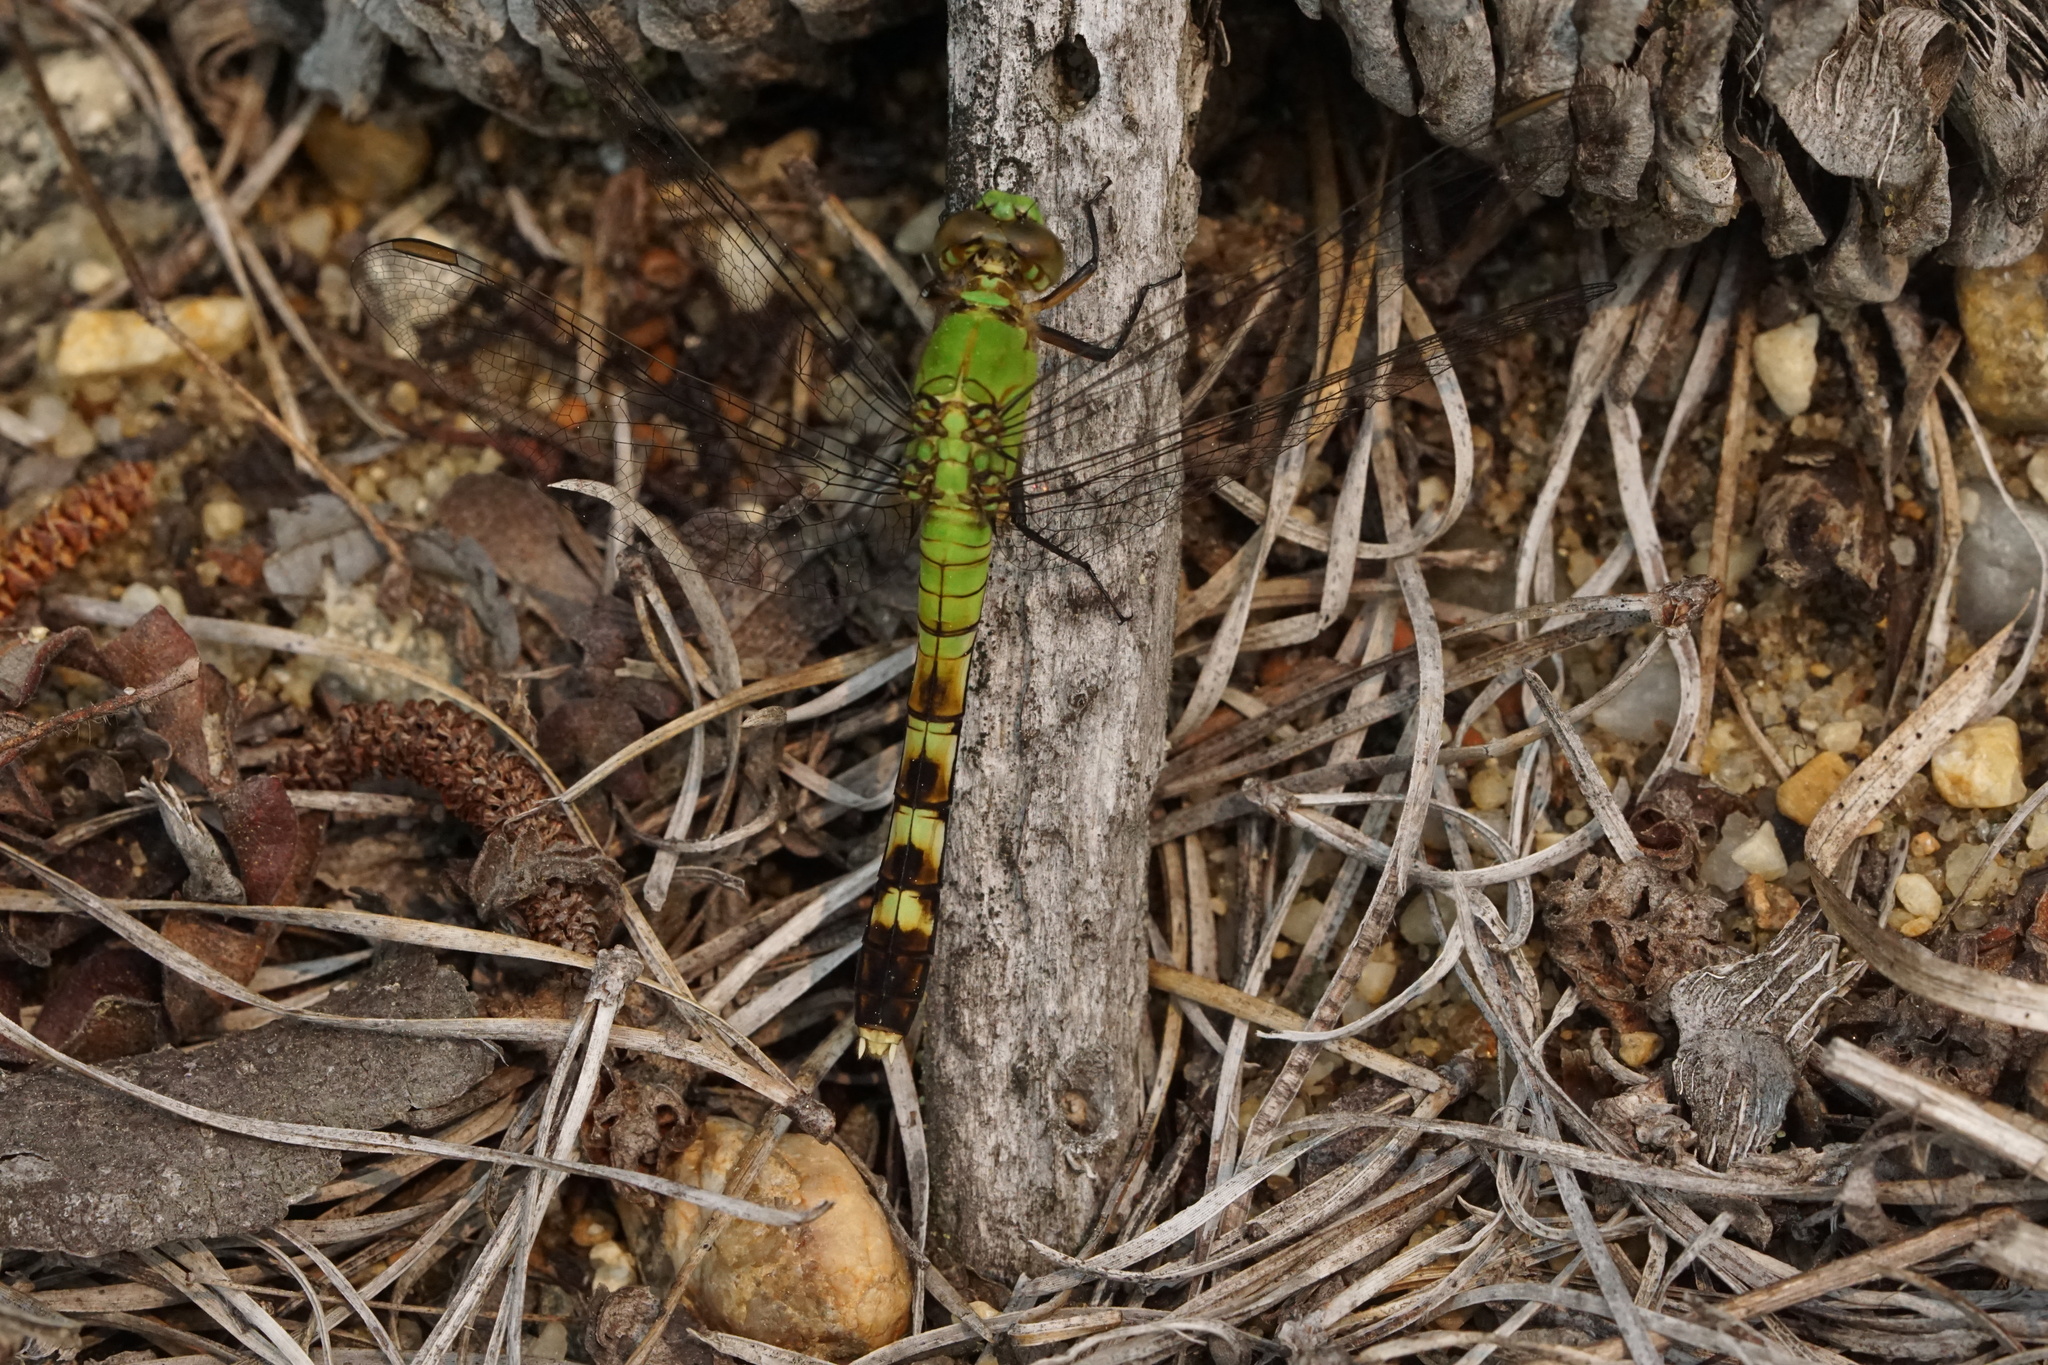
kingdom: Animalia
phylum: Arthropoda
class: Insecta
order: Odonata
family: Libellulidae
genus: Erythemis
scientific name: Erythemis simplicicollis
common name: Eastern pondhawk
